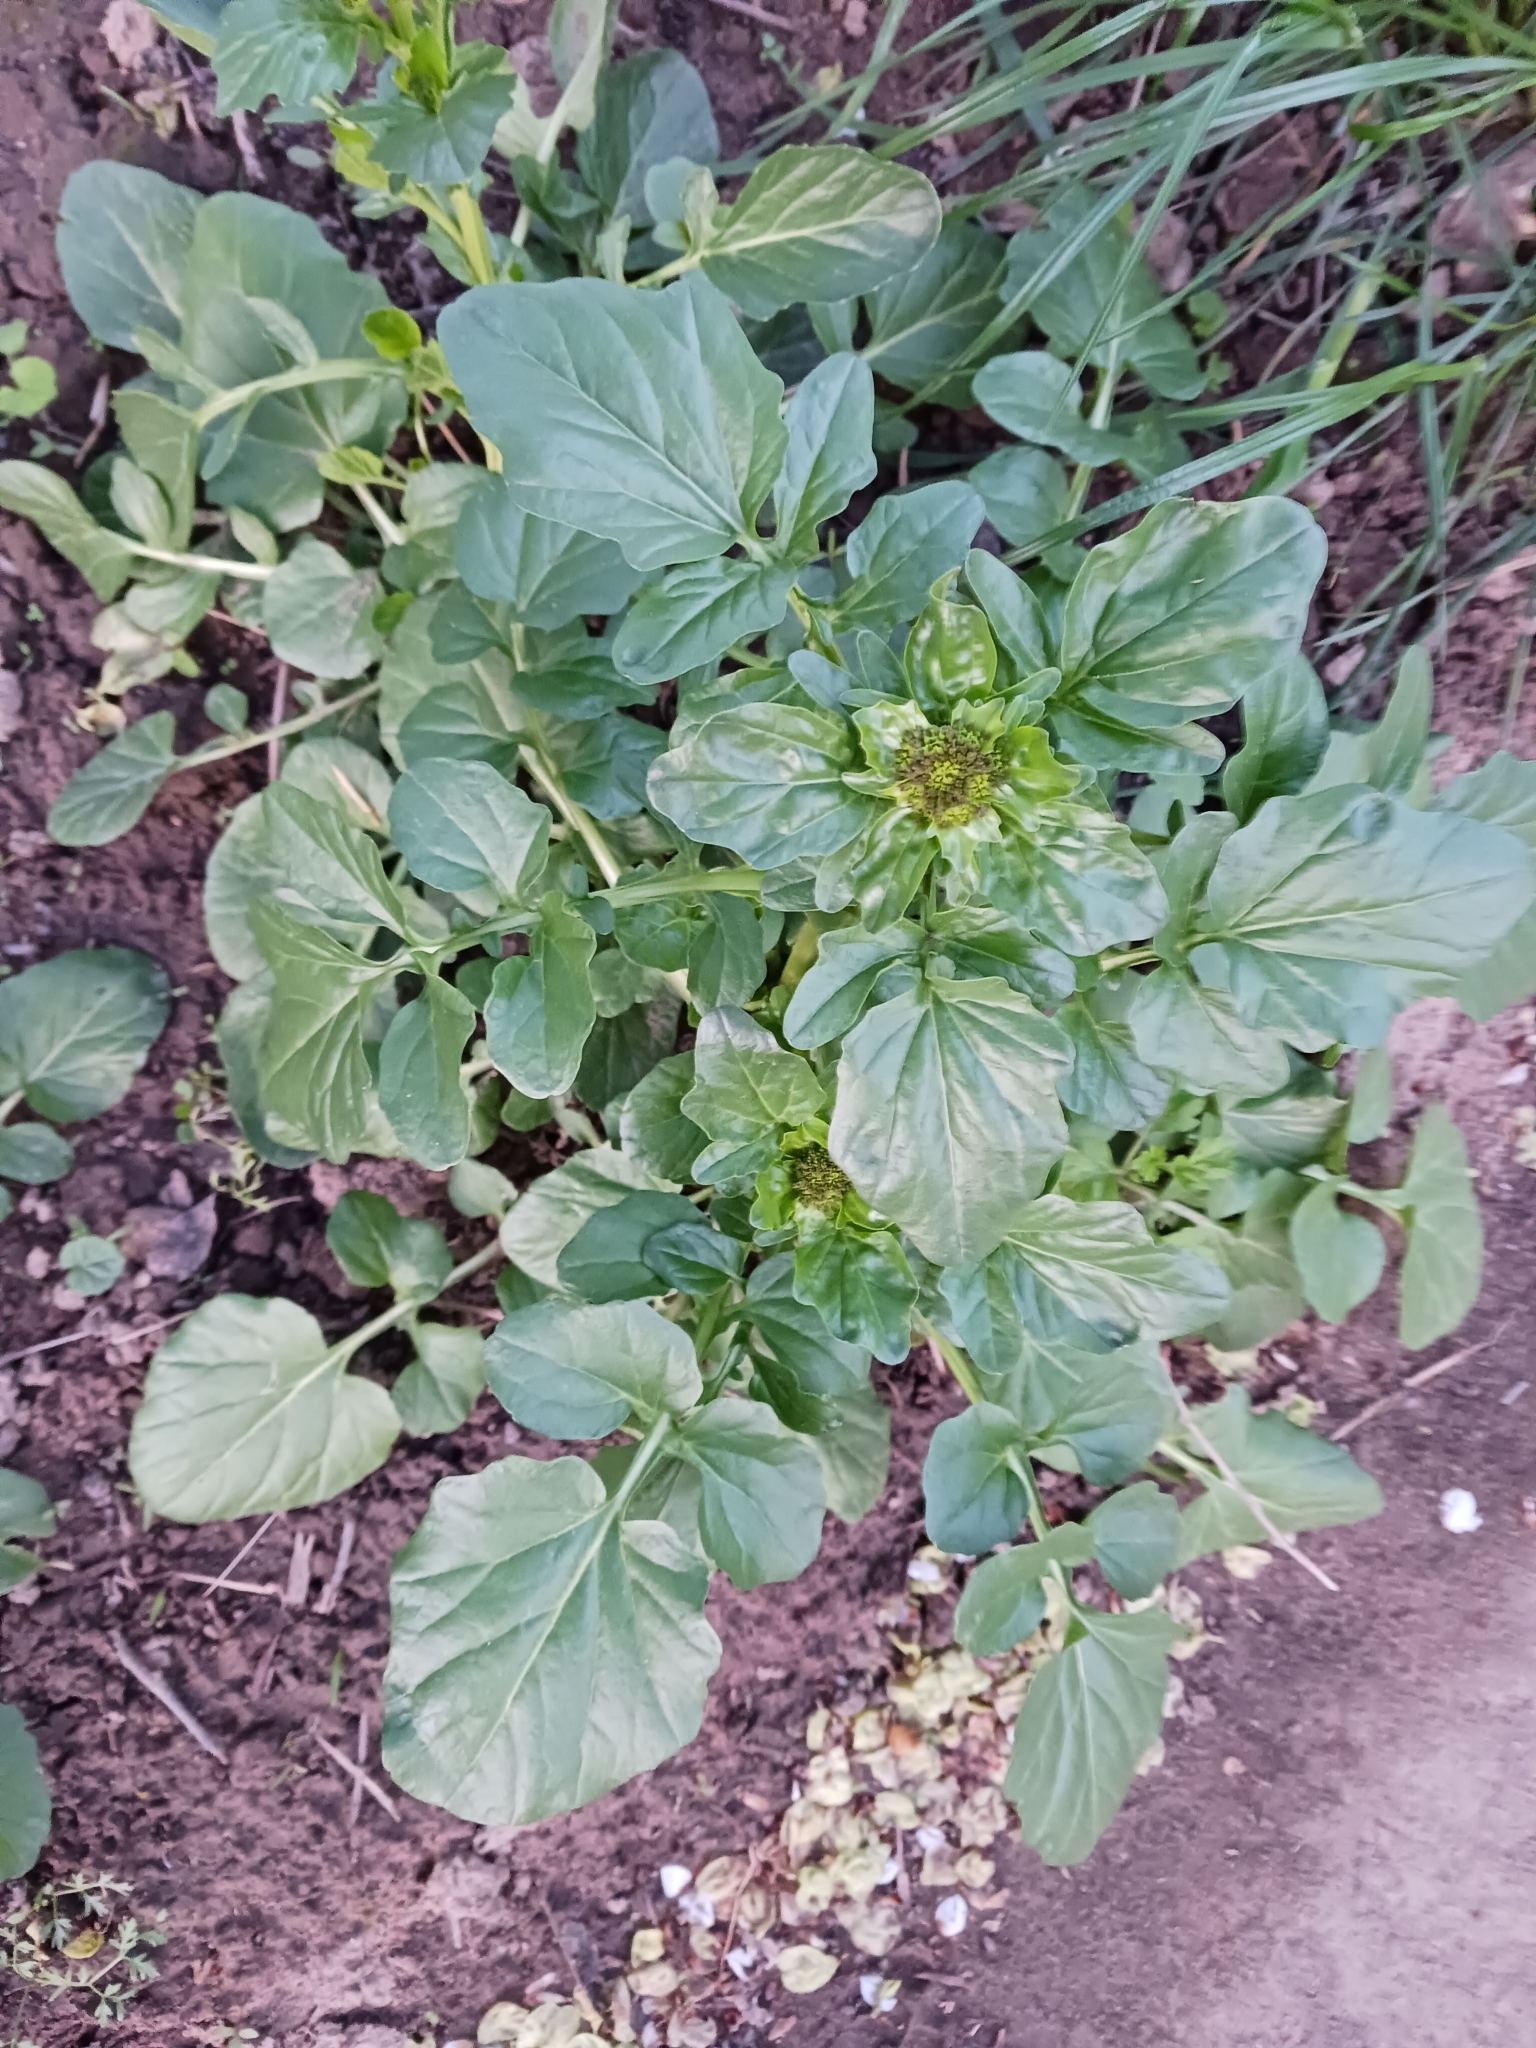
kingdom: Plantae
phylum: Tracheophyta
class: Magnoliopsida
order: Brassicales
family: Brassicaceae
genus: Barbarea
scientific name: Barbarea vulgaris
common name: Cressy-greens
